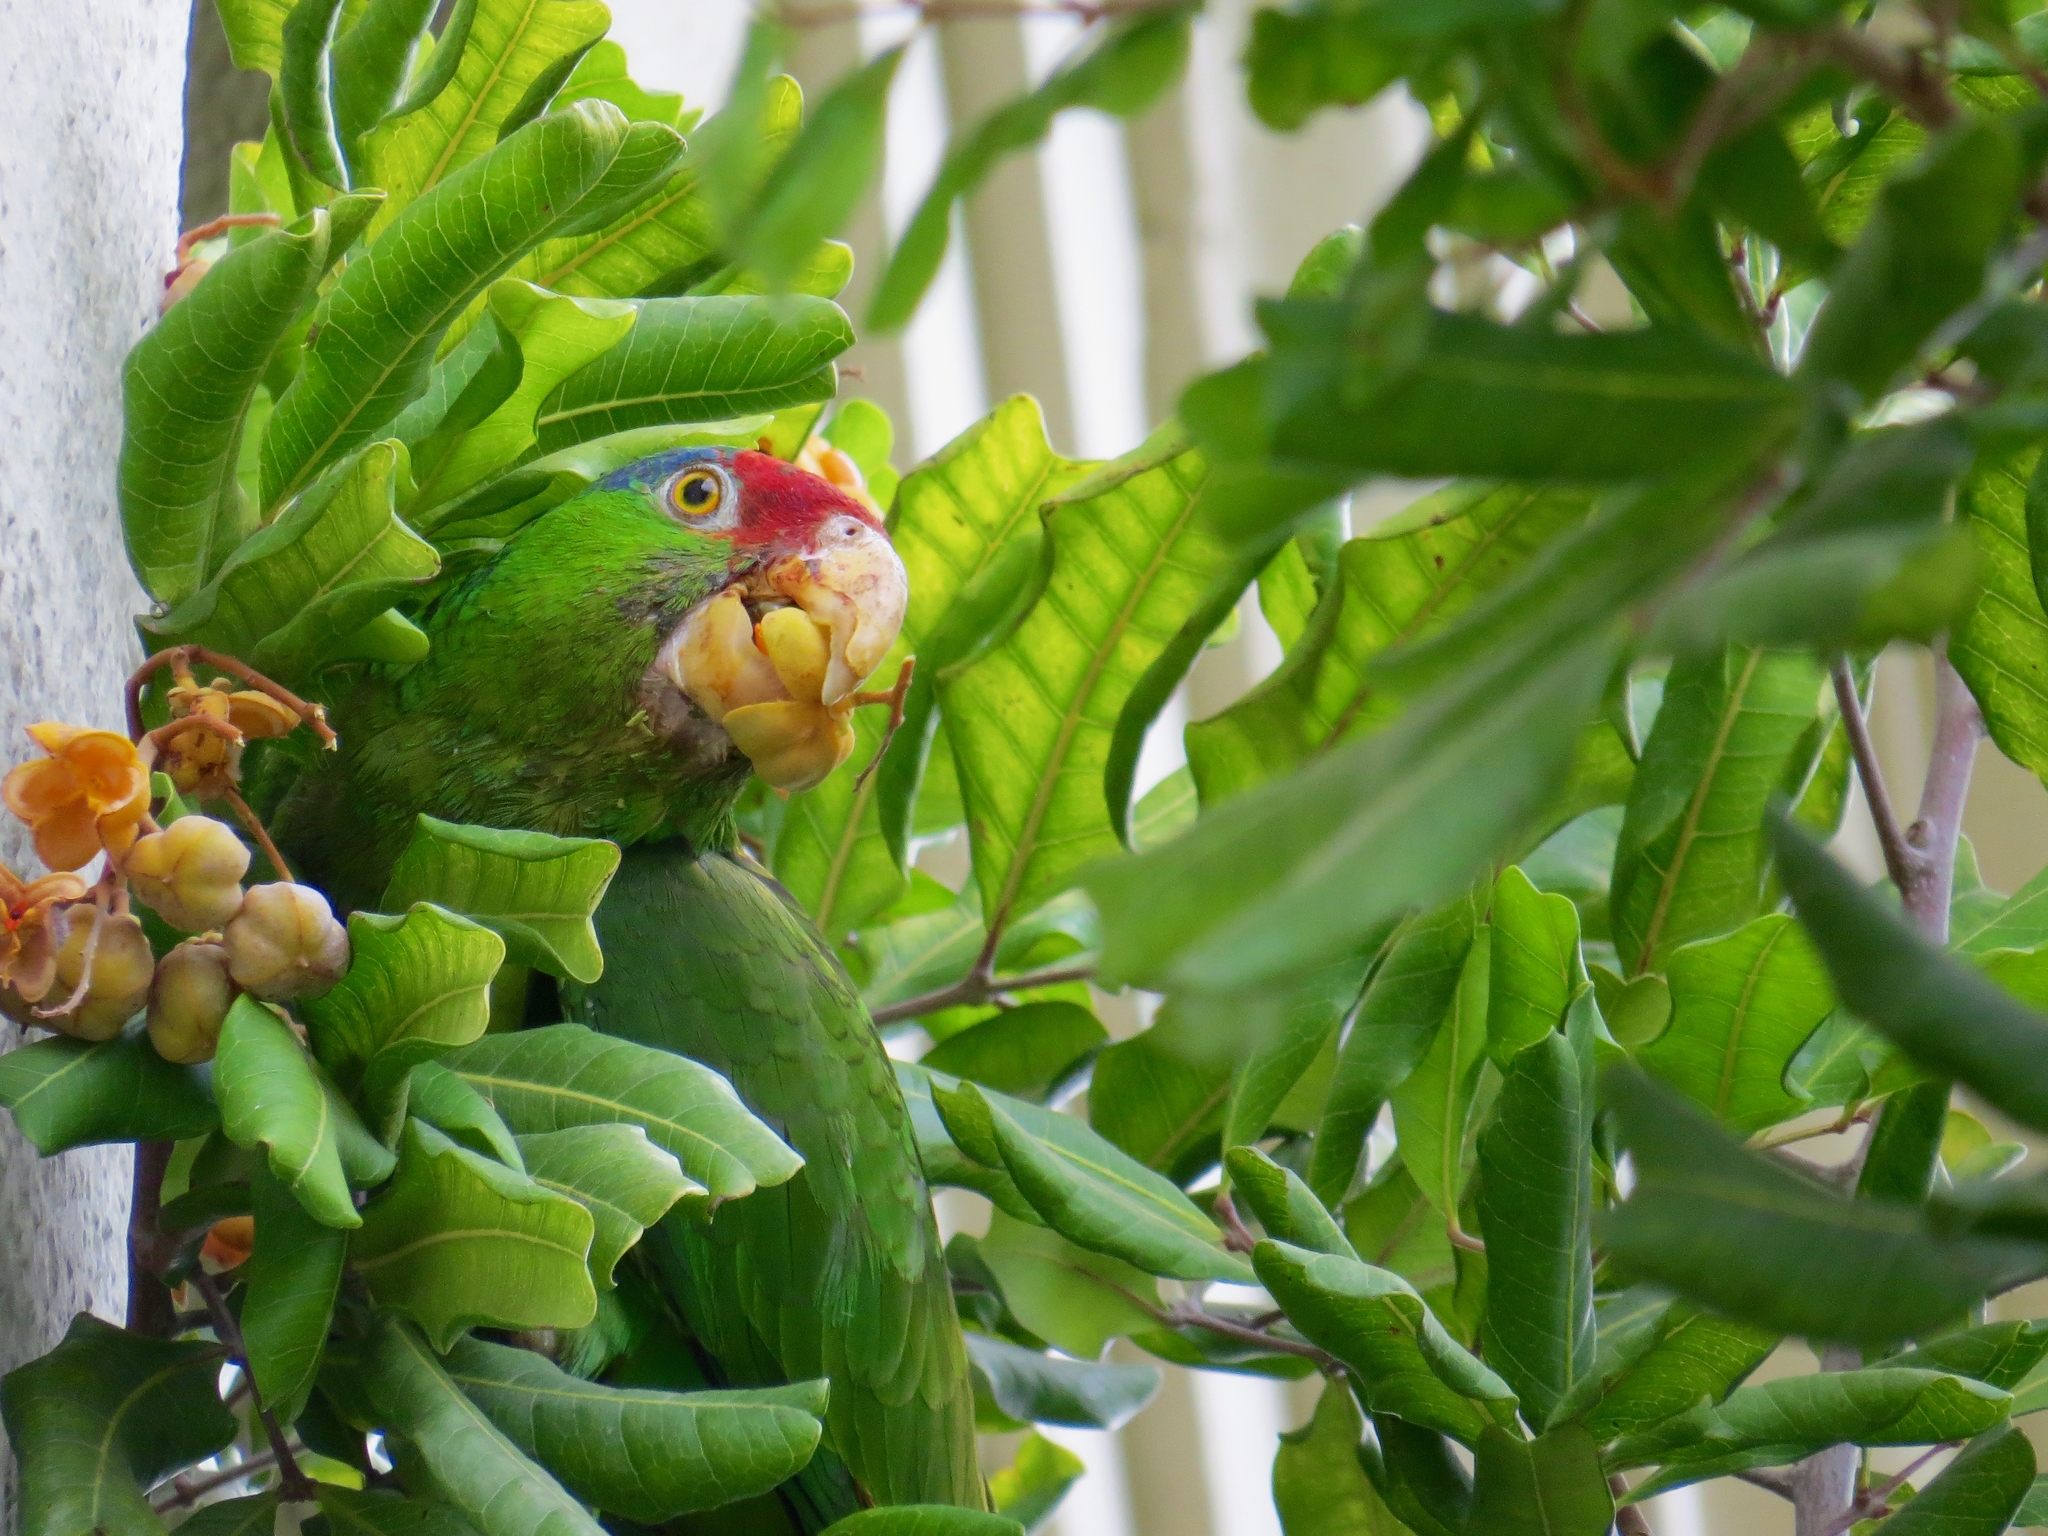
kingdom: Animalia
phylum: Chordata
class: Aves
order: Psittaciformes
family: Psittacidae
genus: Amazona
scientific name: Amazona viridigenalis
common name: Red-crowned amazon
